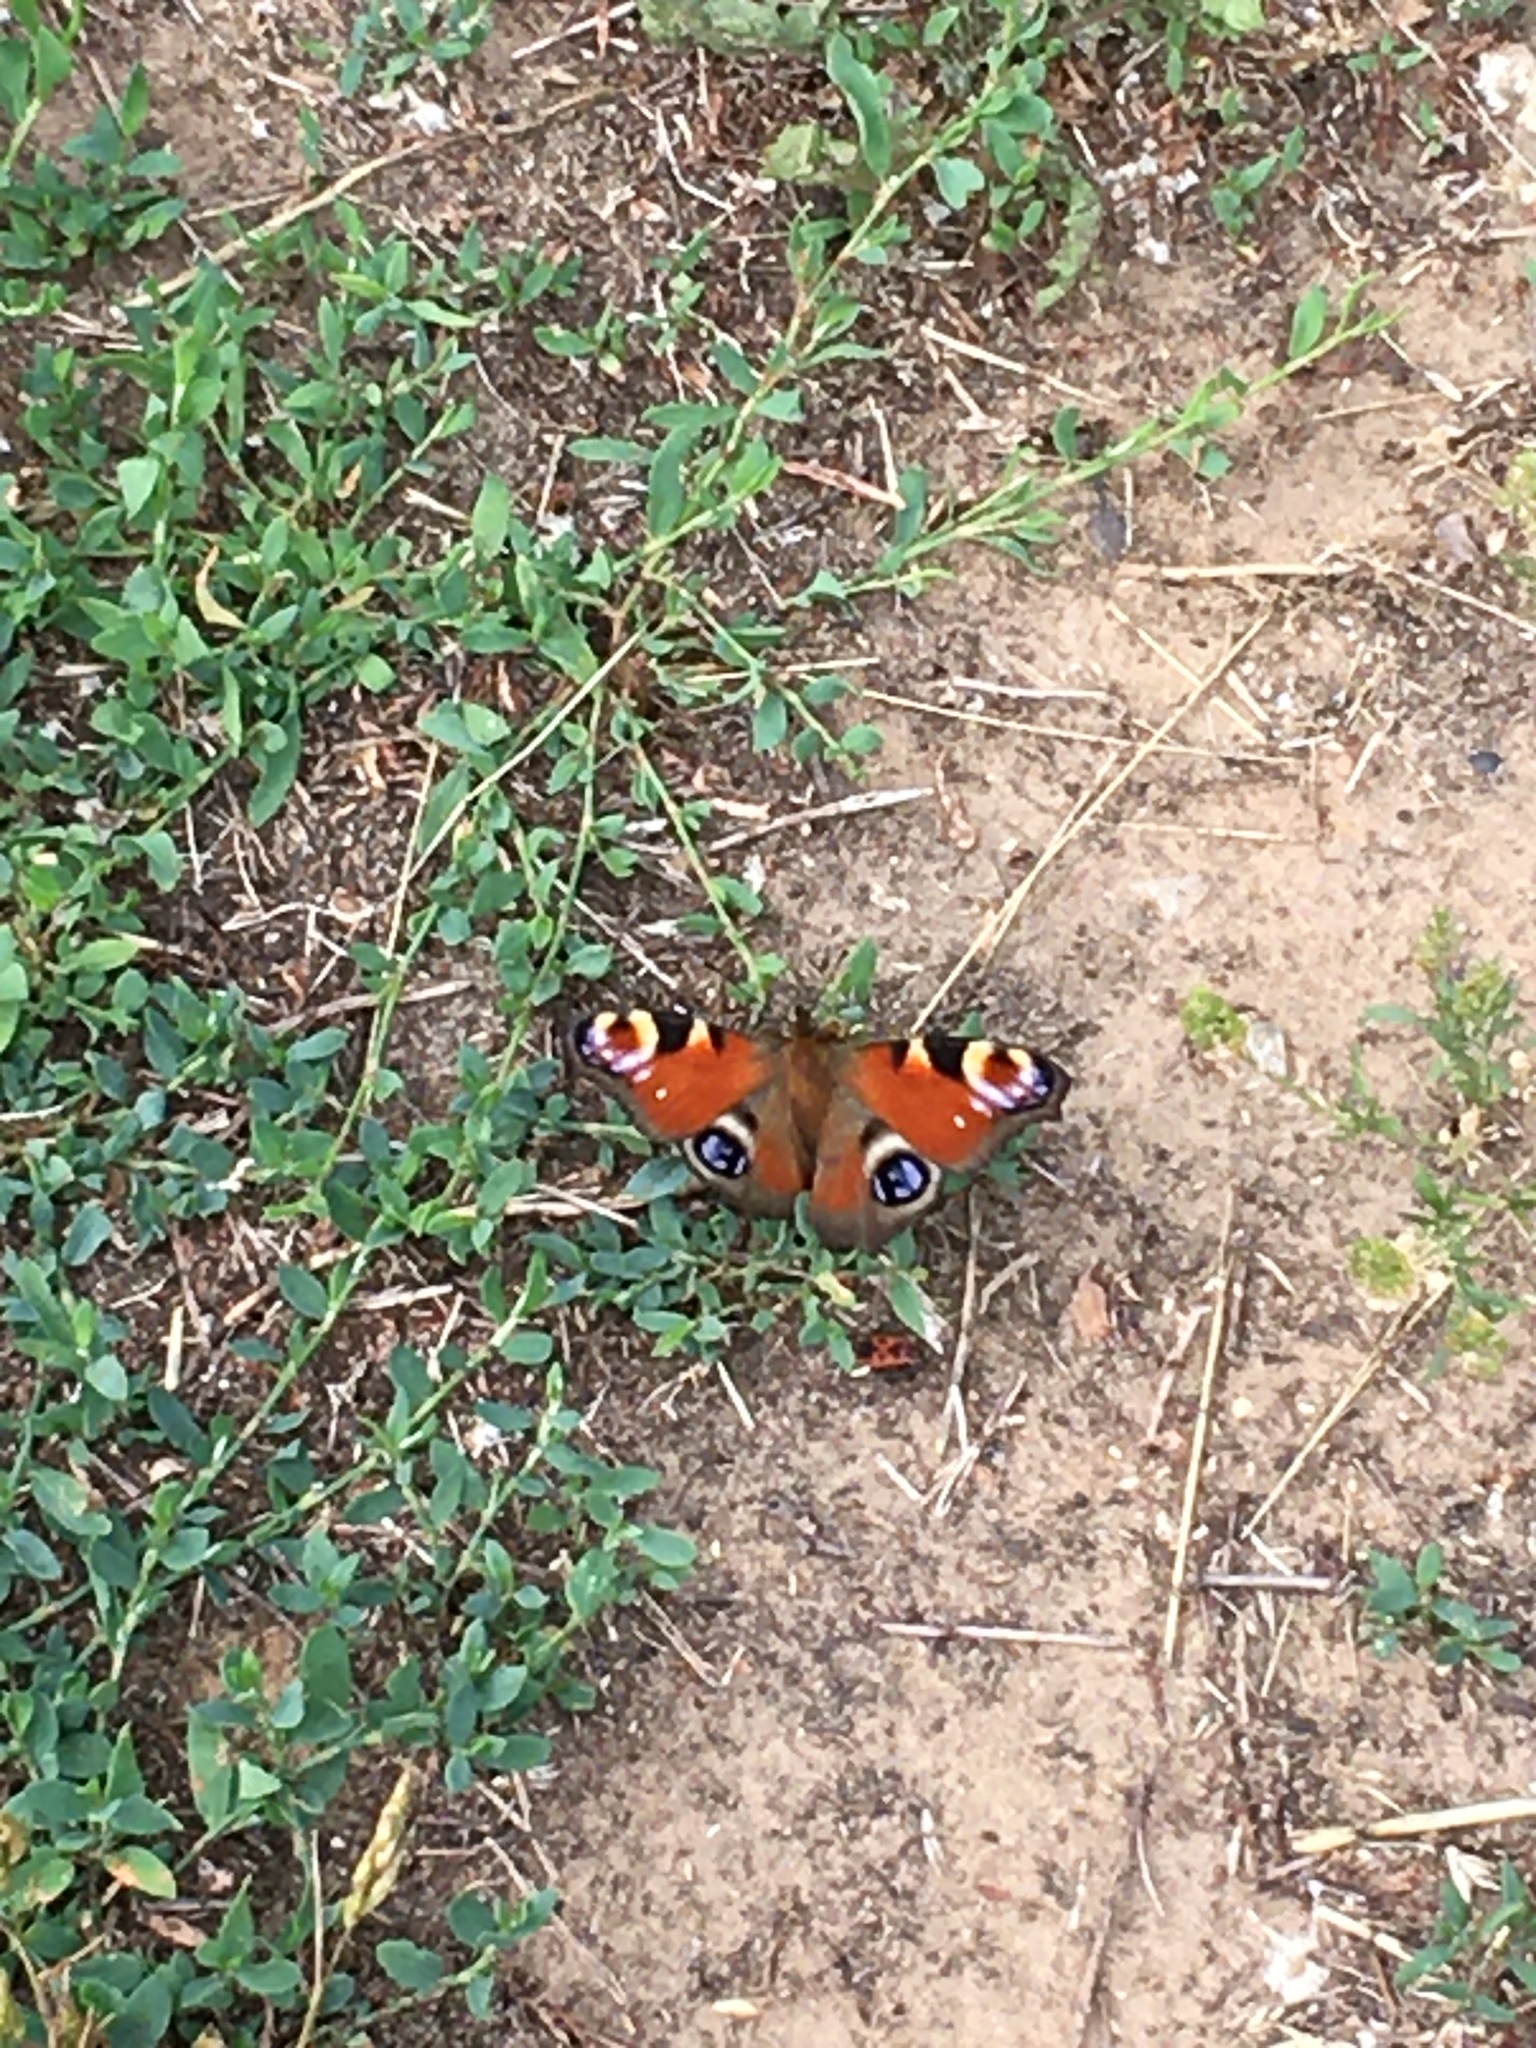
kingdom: Animalia
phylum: Arthropoda
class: Insecta
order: Lepidoptera
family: Nymphalidae
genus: Aglais
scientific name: Aglais io
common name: Peacock
